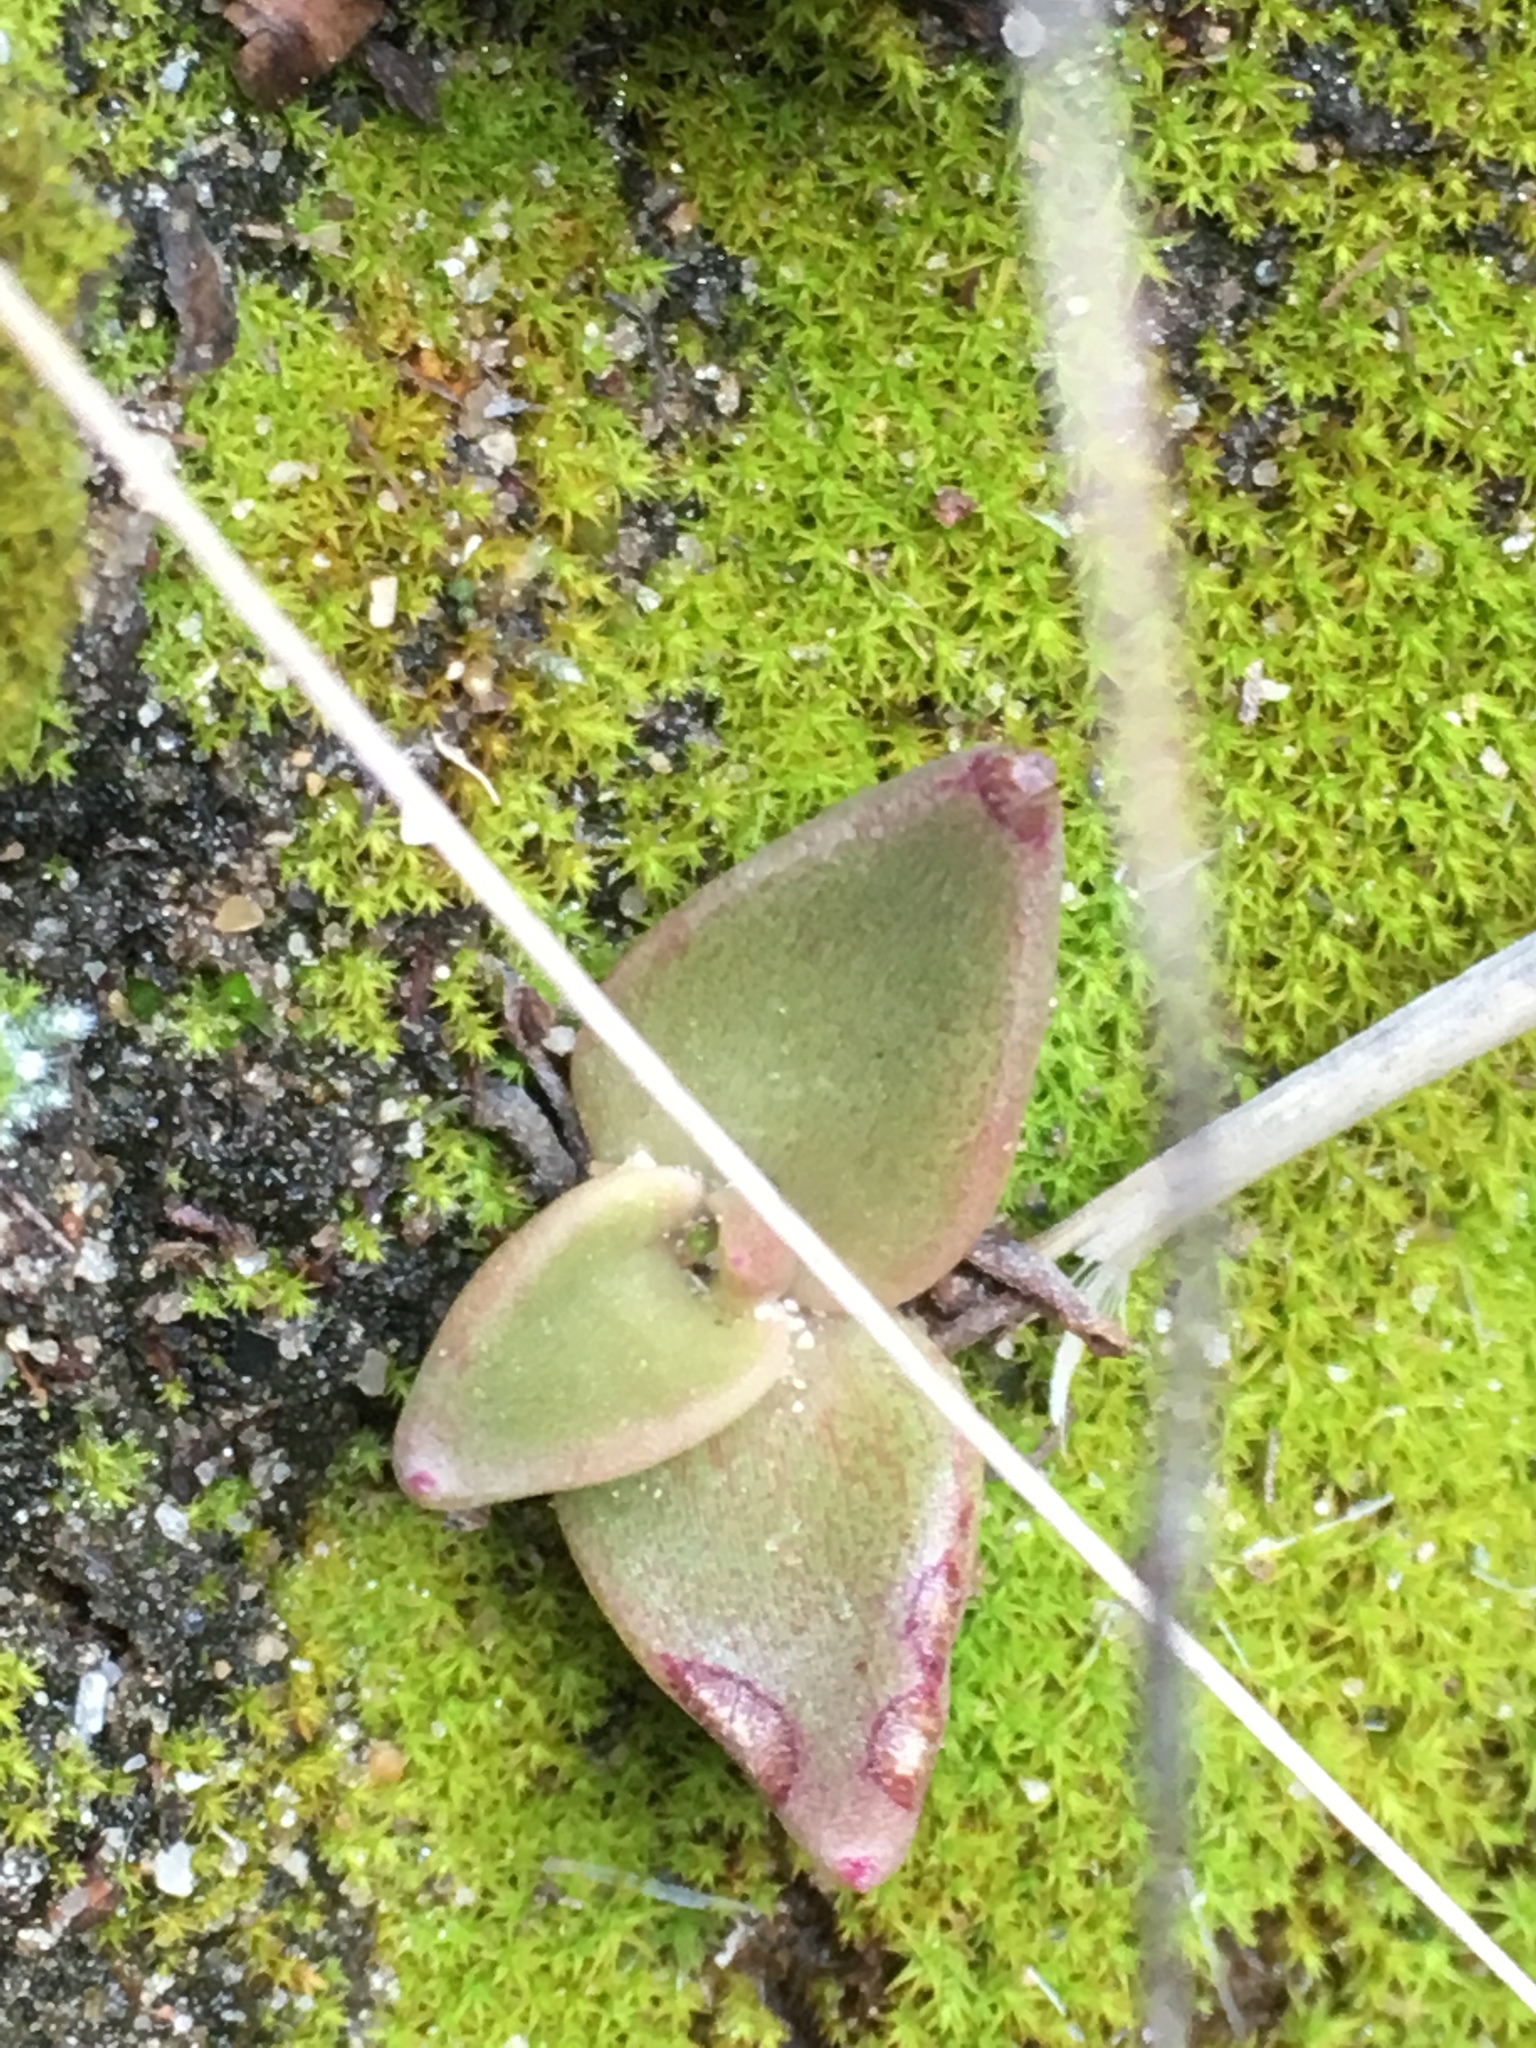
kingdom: Plantae
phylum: Tracheophyta
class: Magnoliopsida
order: Saxifragales
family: Crassulaceae
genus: Dudleya
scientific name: Dudleya
